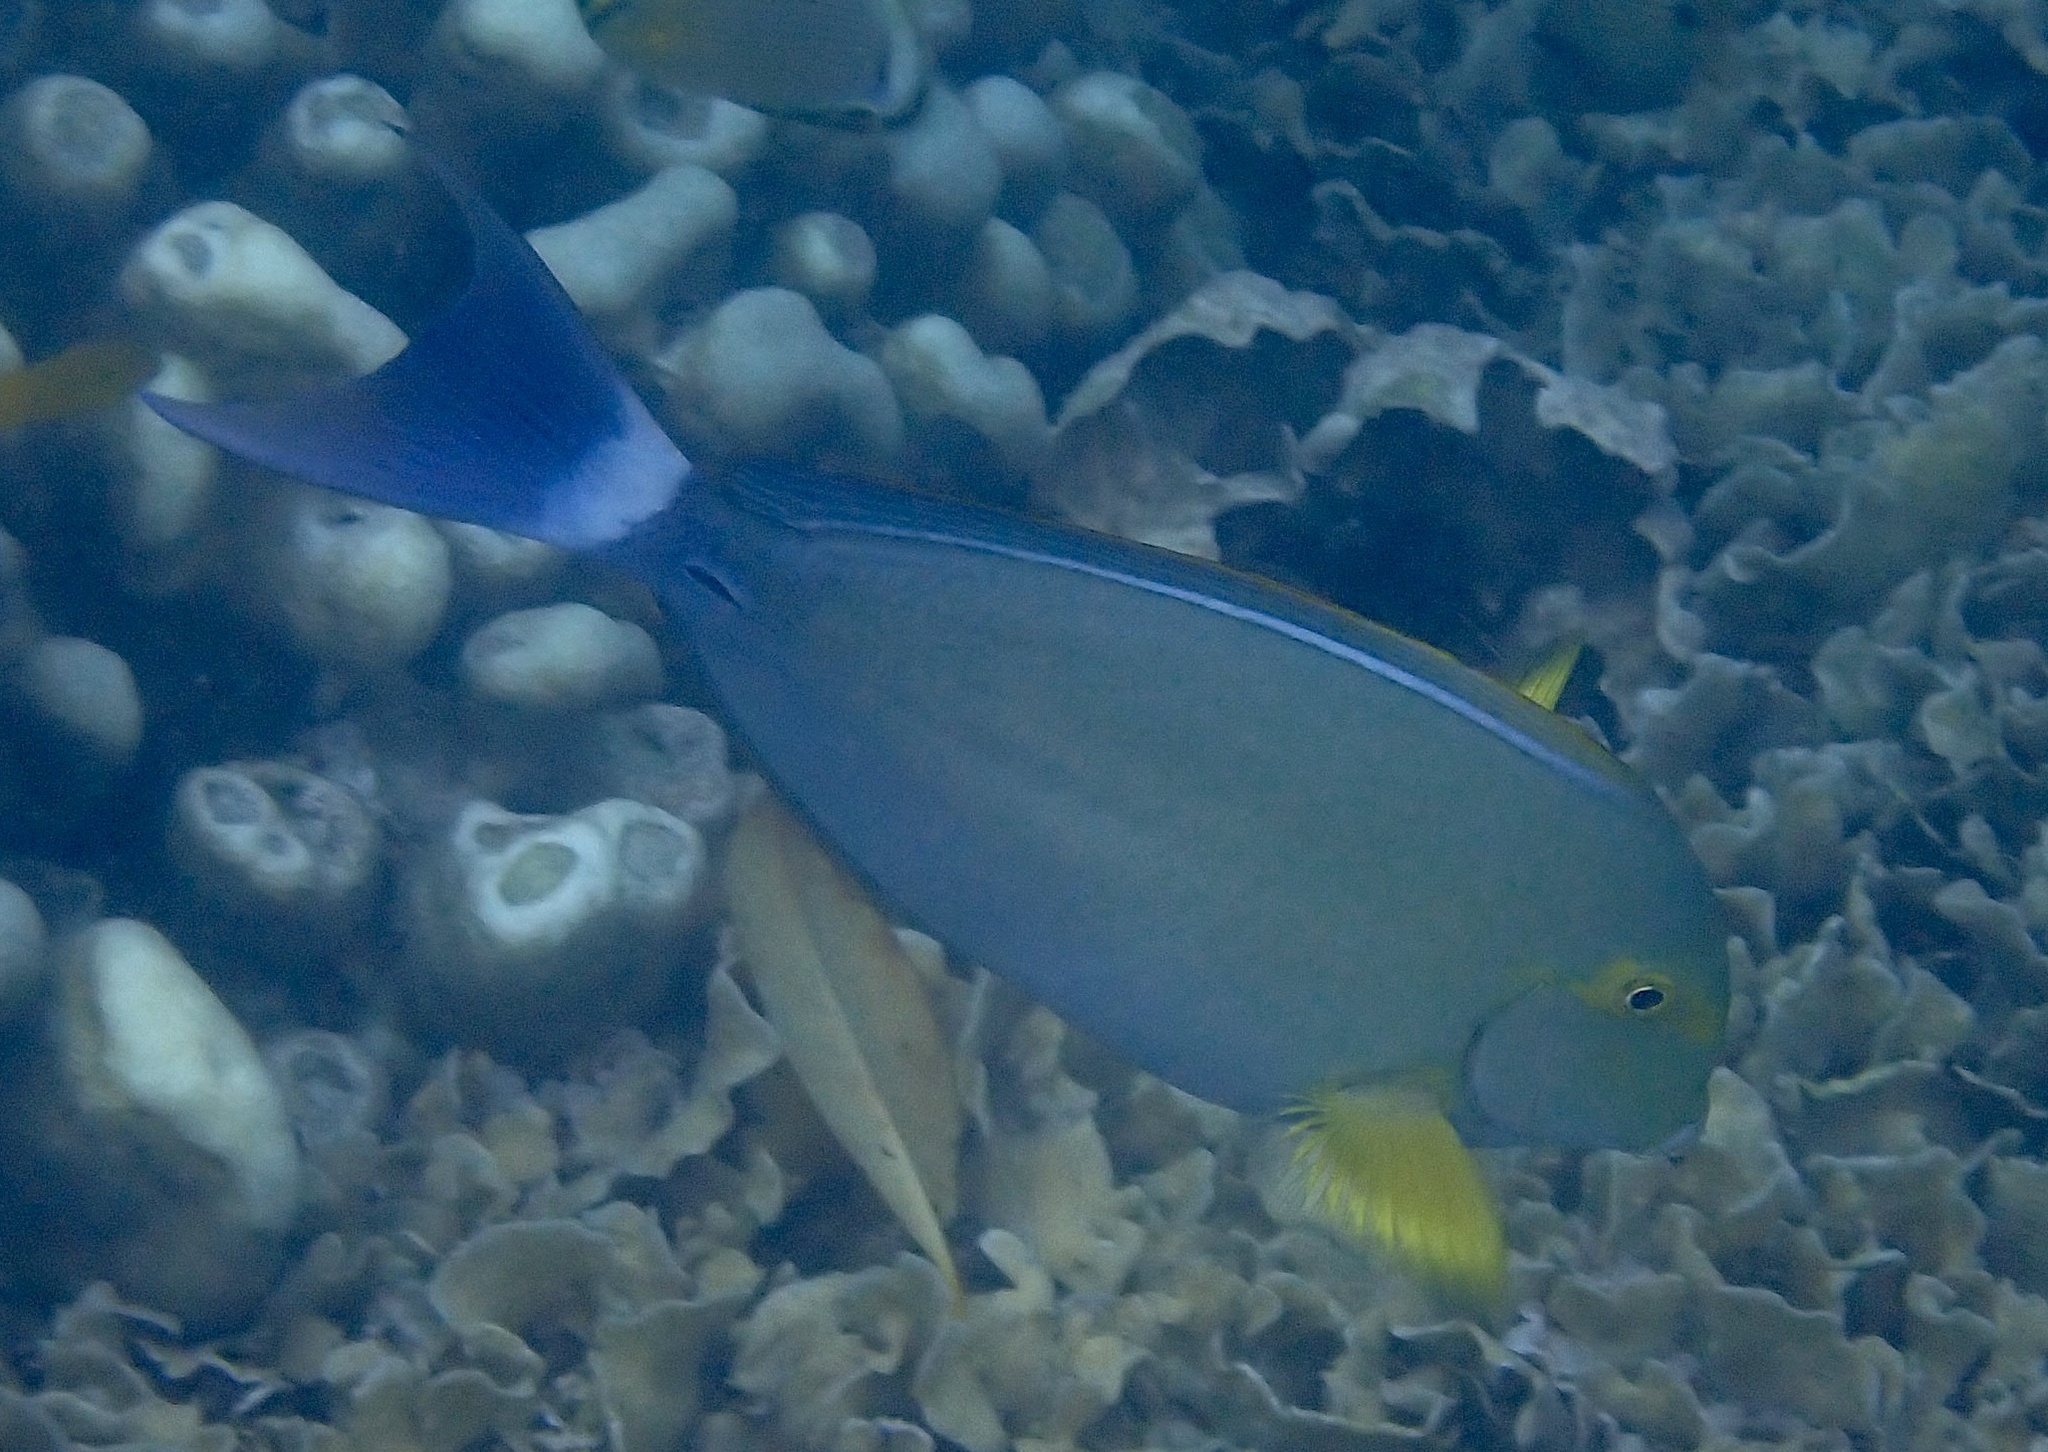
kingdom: Animalia
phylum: Chordata
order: Perciformes
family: Acanthuridae
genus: Acanthurus
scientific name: Acanthurus xanthopterus
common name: Cuvier's surgeonfish
